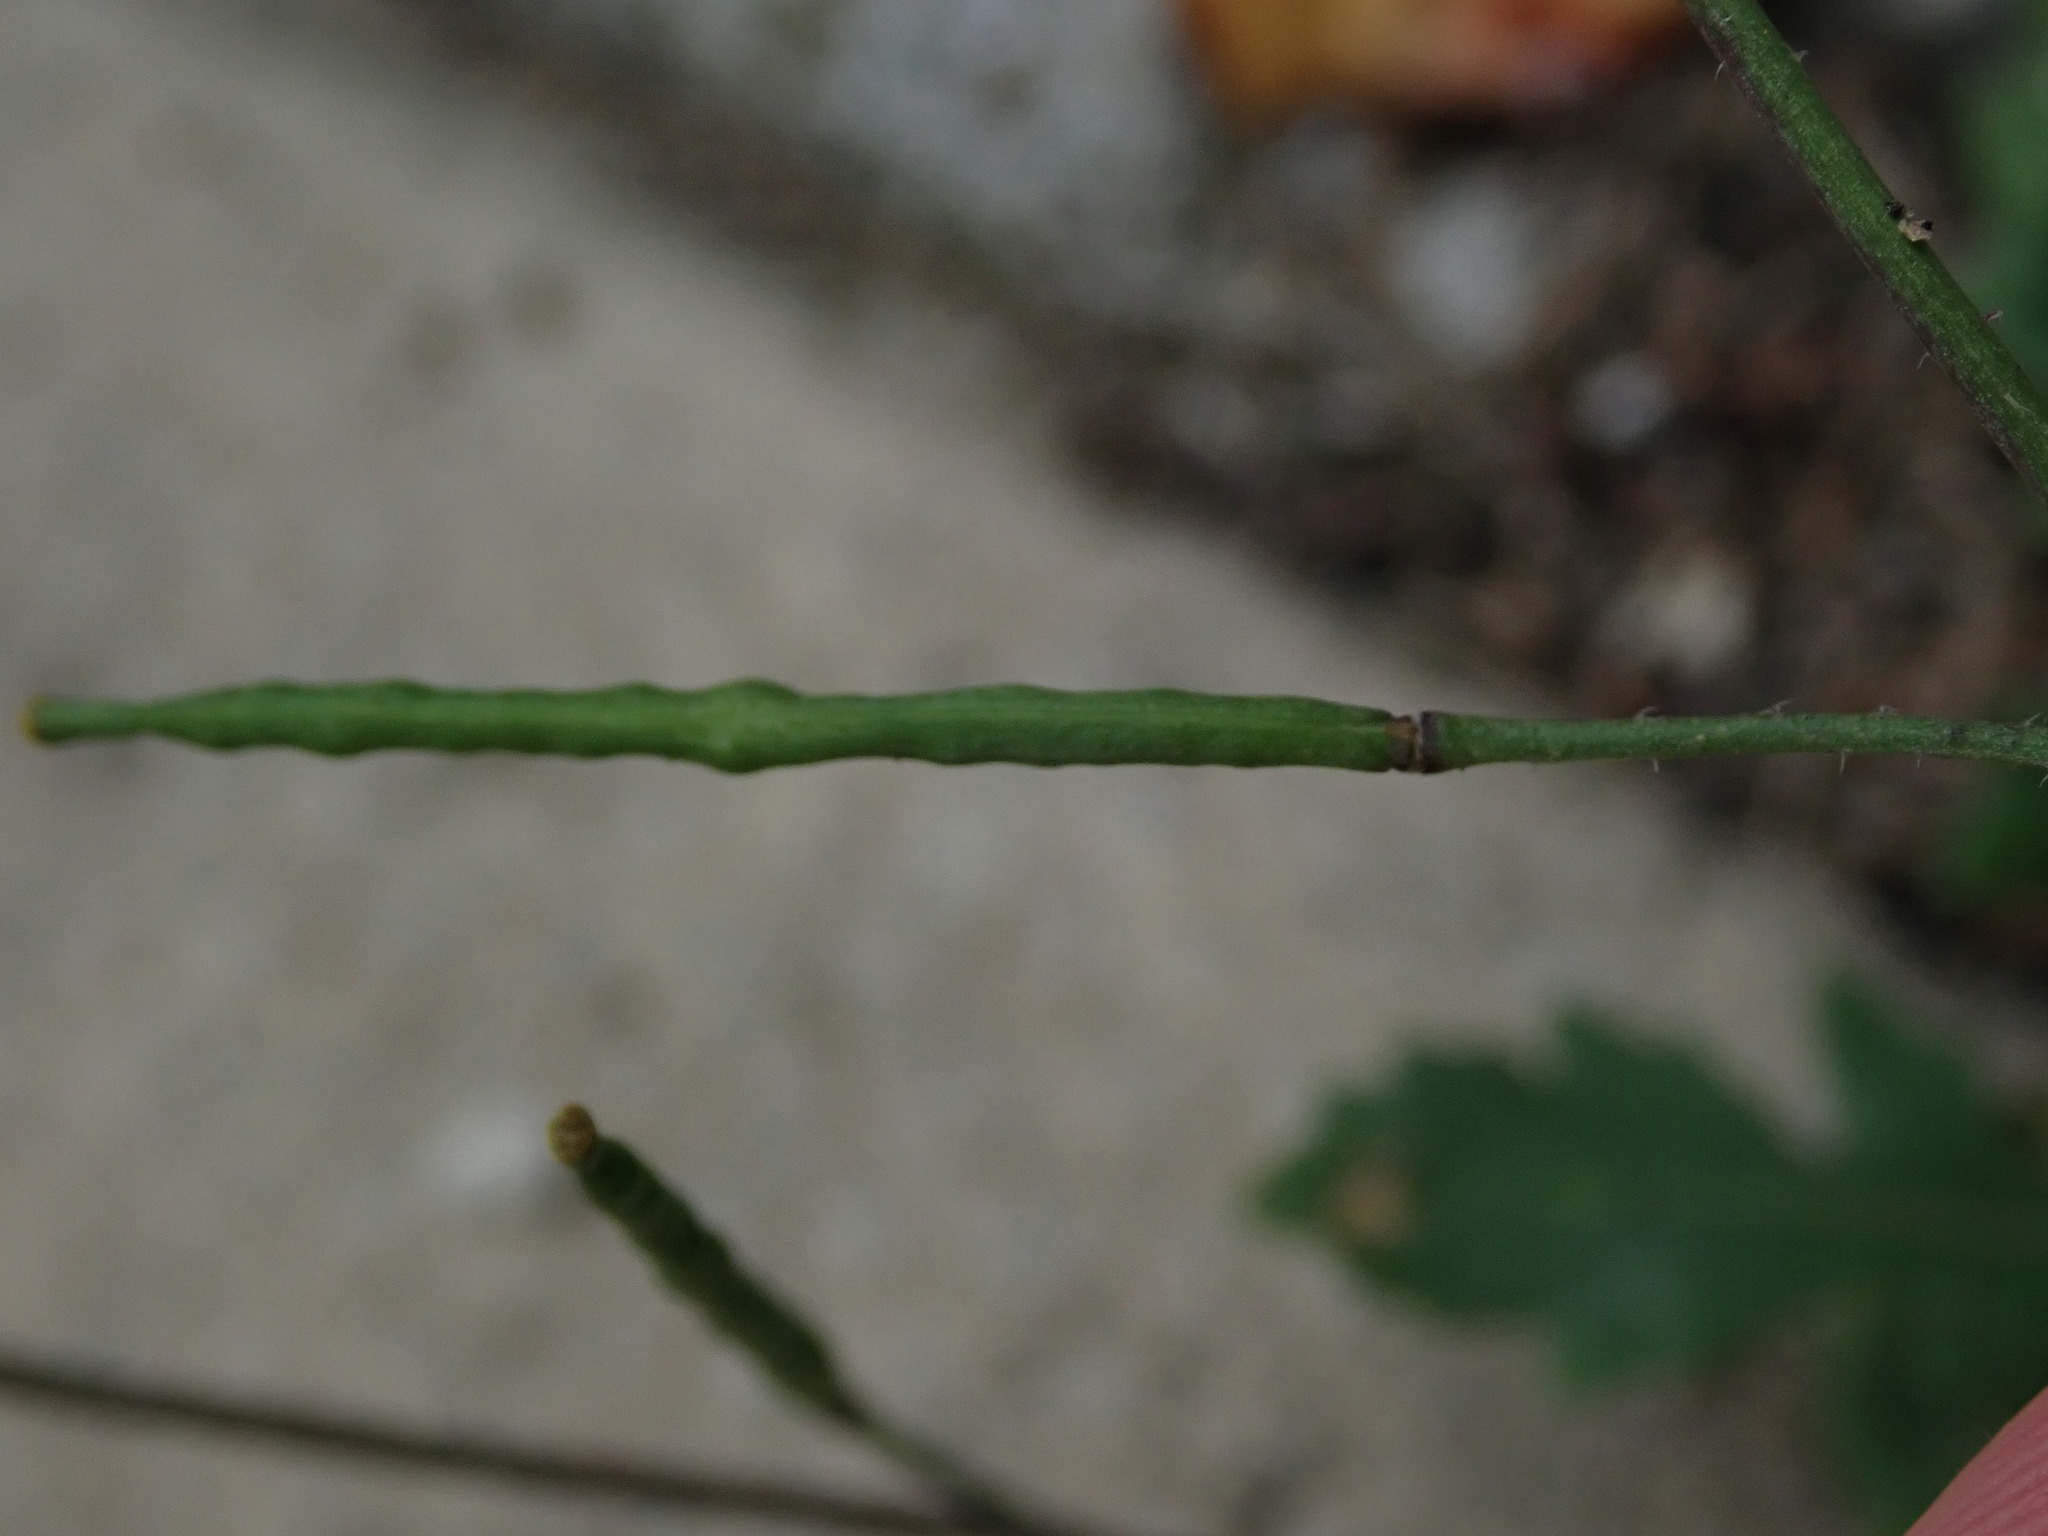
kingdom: Plantae
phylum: Tracheophyta
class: Magnoliopsida
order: Brassicales
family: Brassicaceae
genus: Diplotaxis
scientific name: Diplotaxis muralis
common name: Annual wall-rocket
